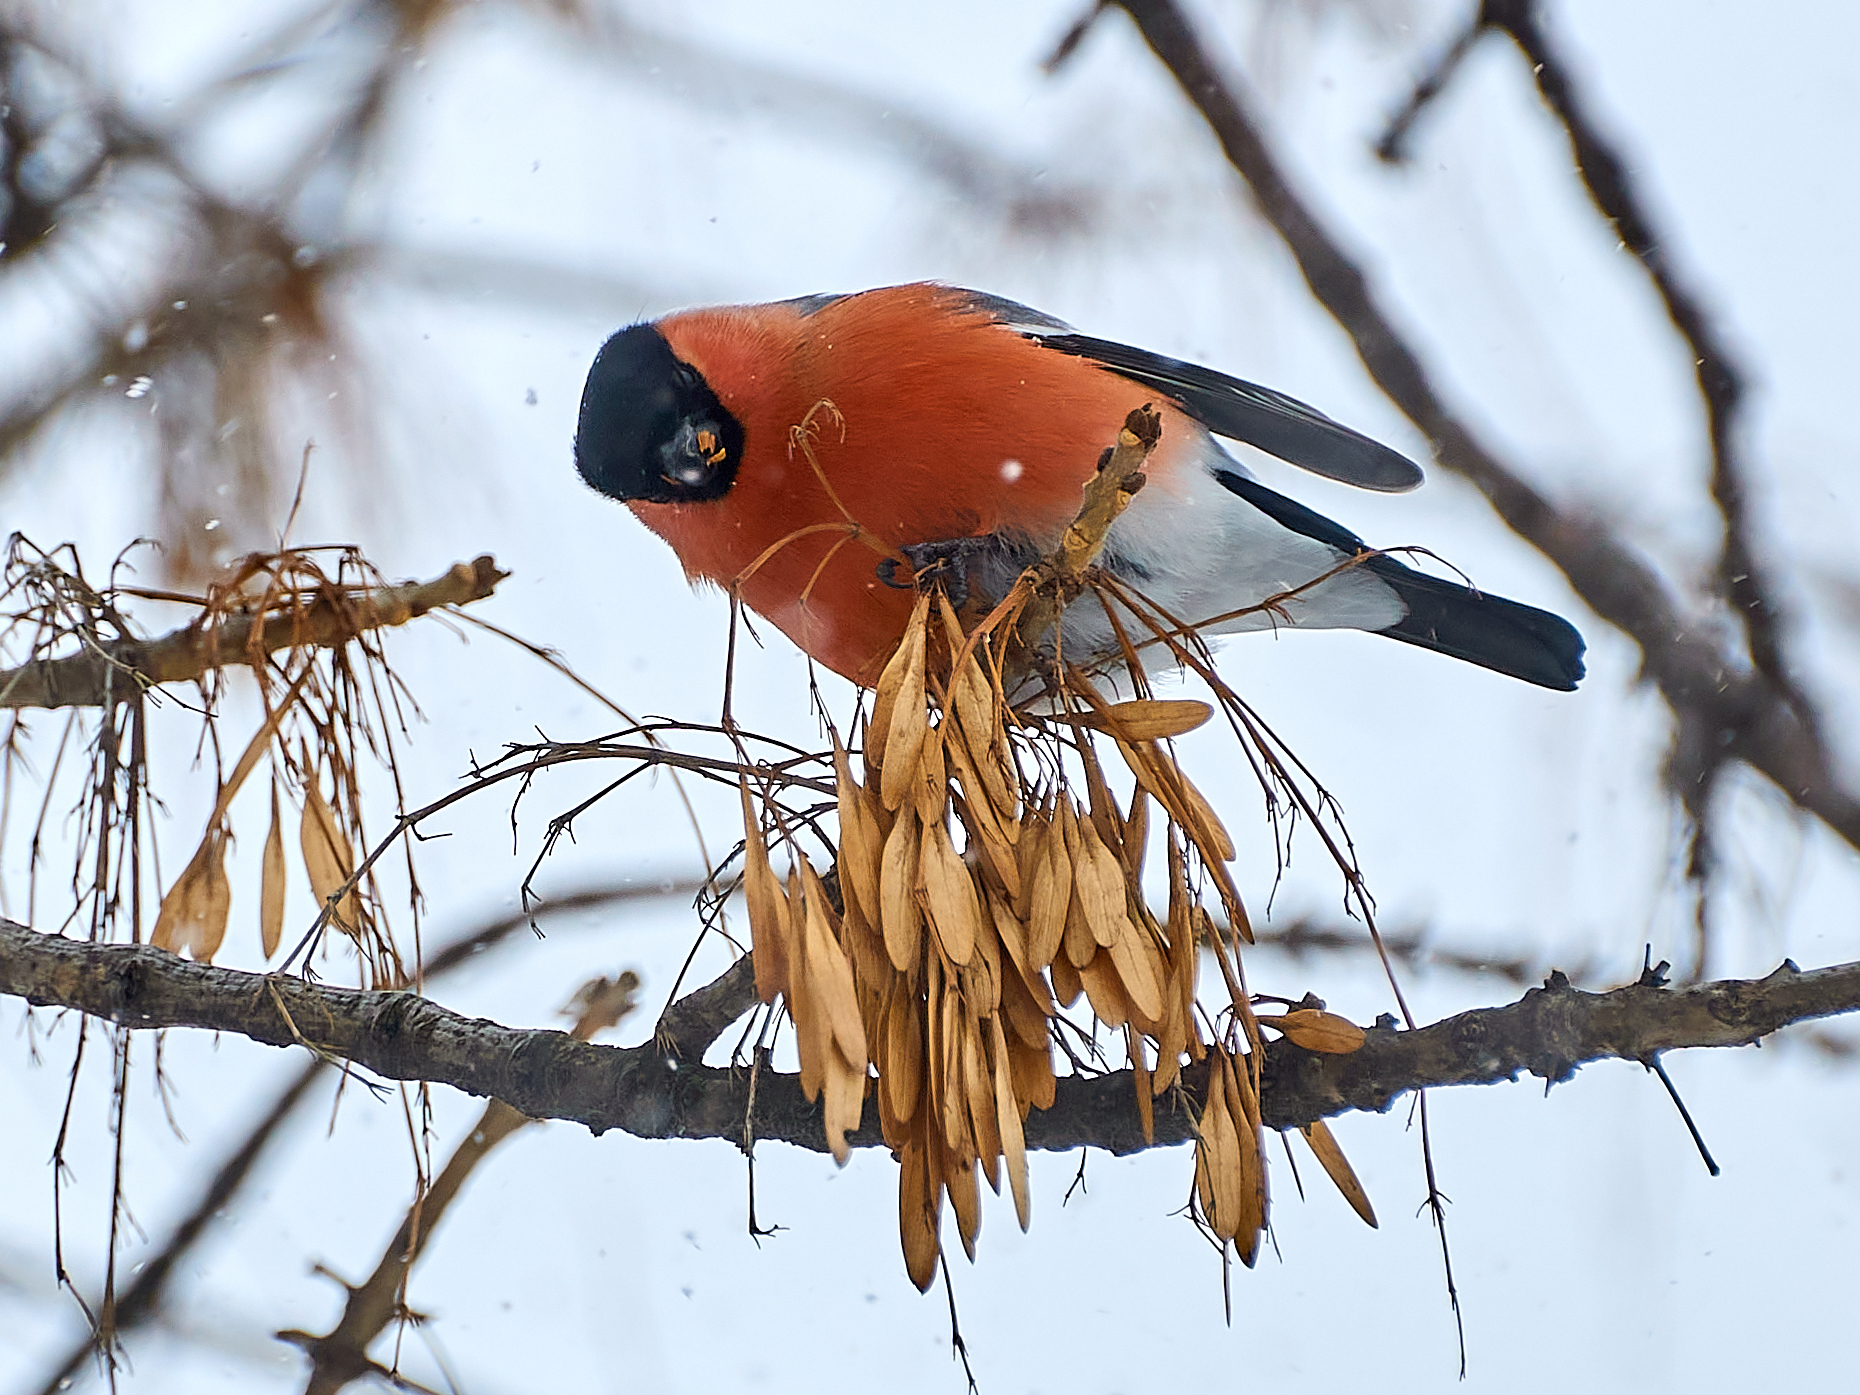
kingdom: Animalia
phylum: Chordata
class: Aves
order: Passeriformes
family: Fringillidae
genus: Pyrrhula
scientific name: Pyrrhula pyrrhula
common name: Eurasian bullfinch
